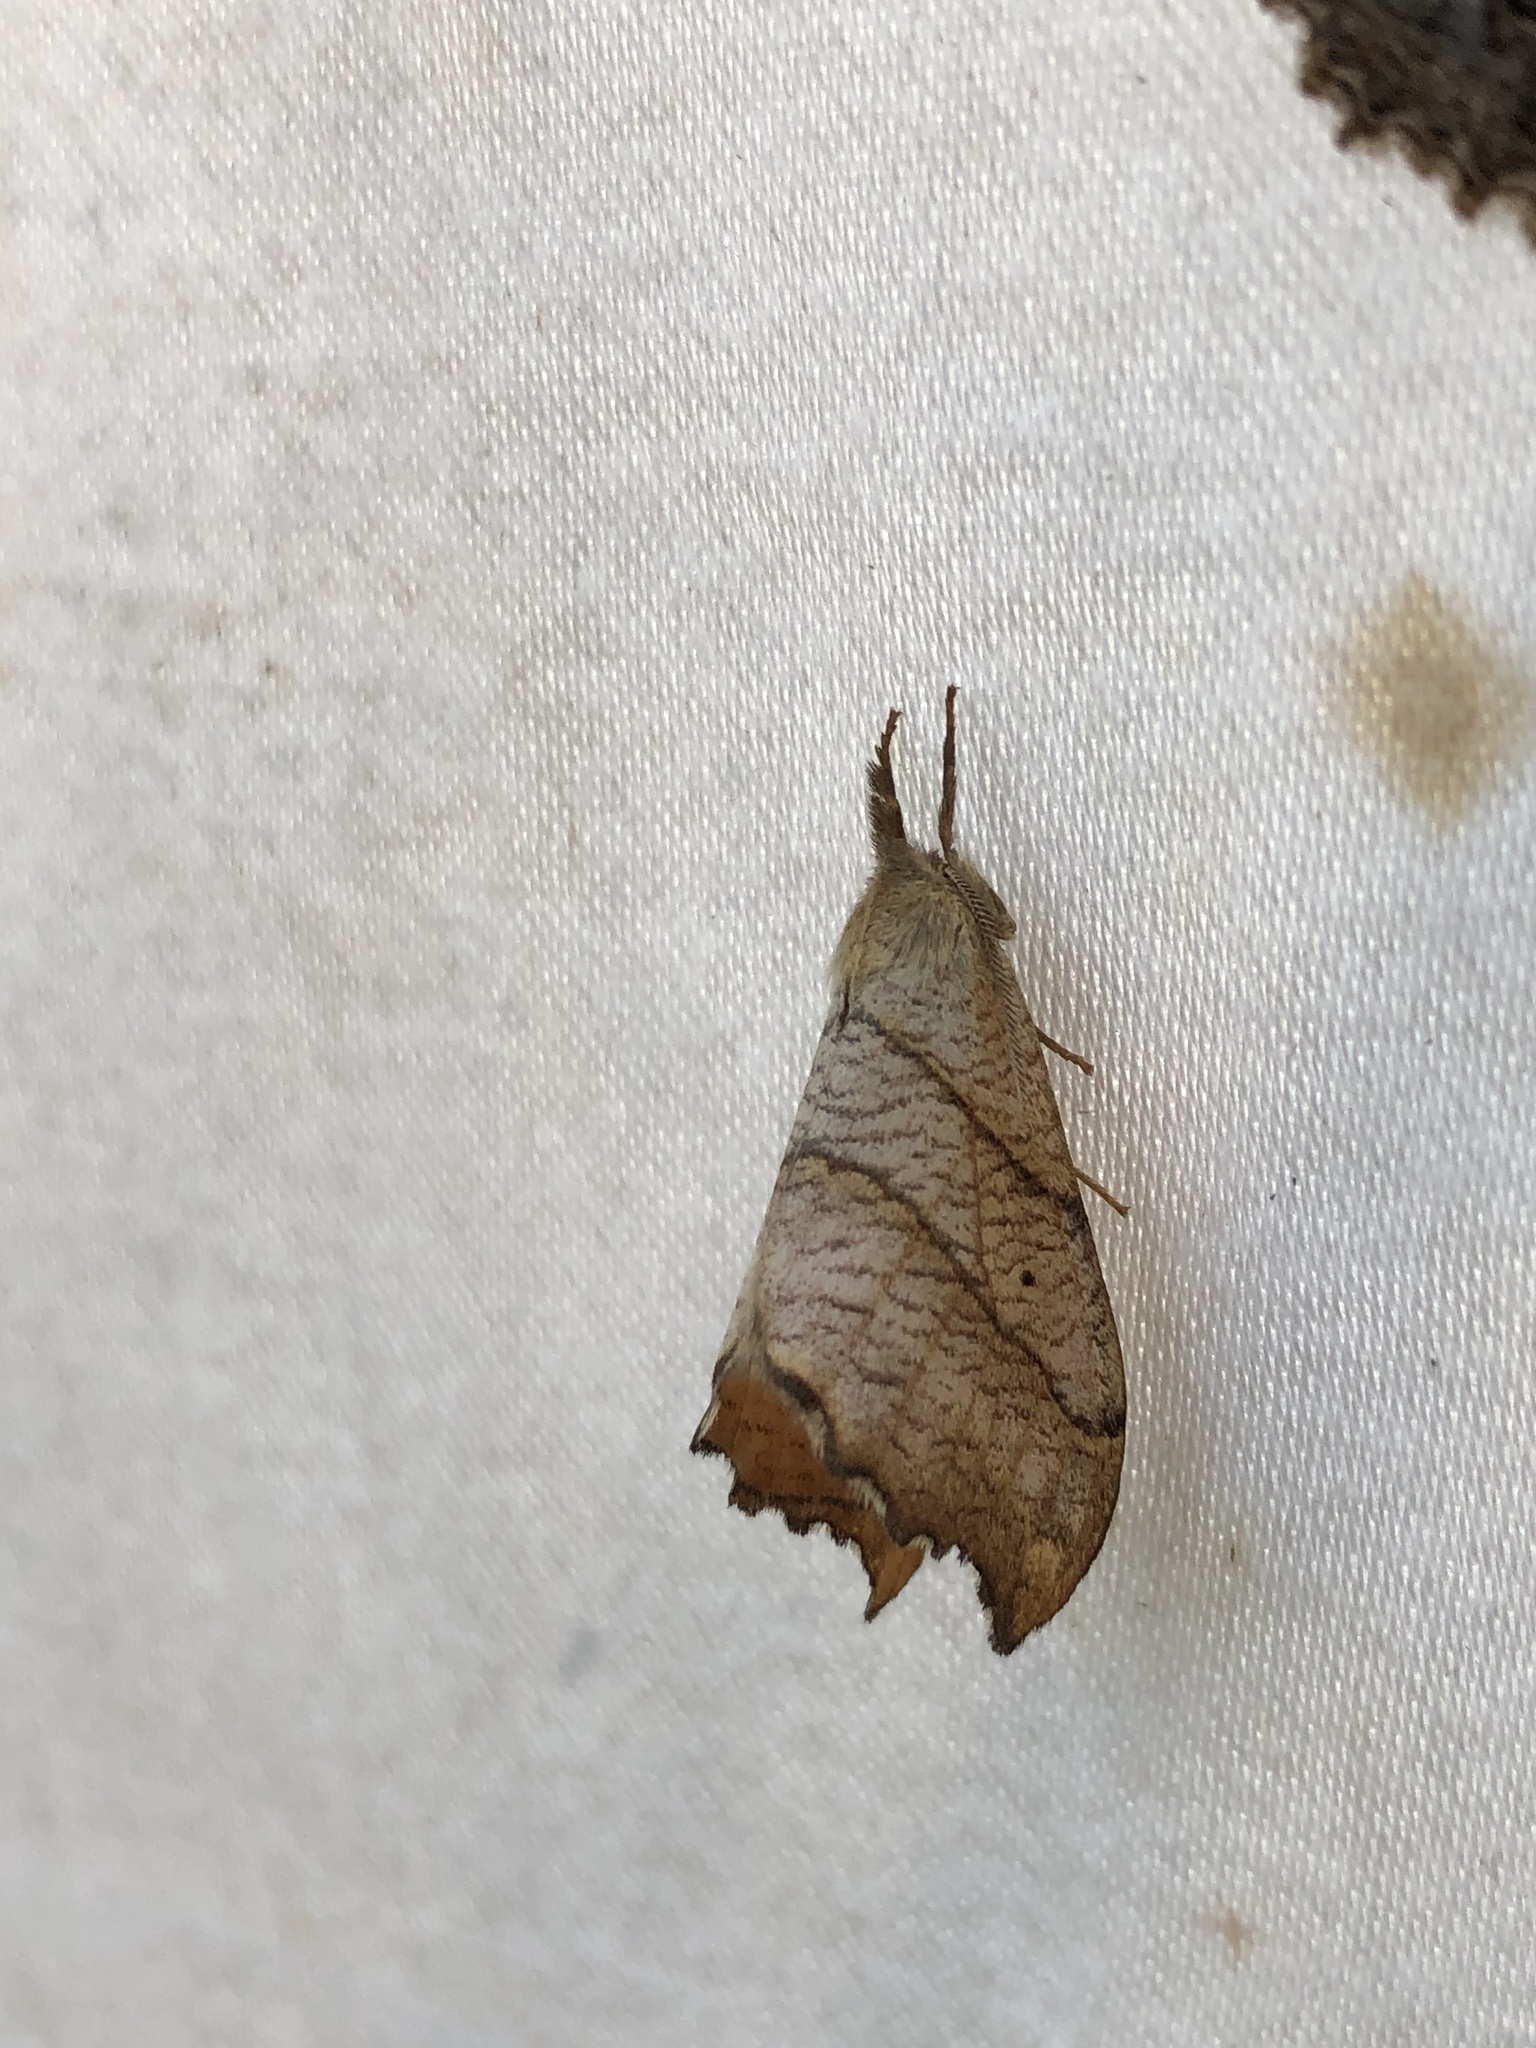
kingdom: Animalia
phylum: Arthropoda
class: Insecta
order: Lepidoptera
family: Drepanidae
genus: Falcaria
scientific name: Falcaria bilineata
